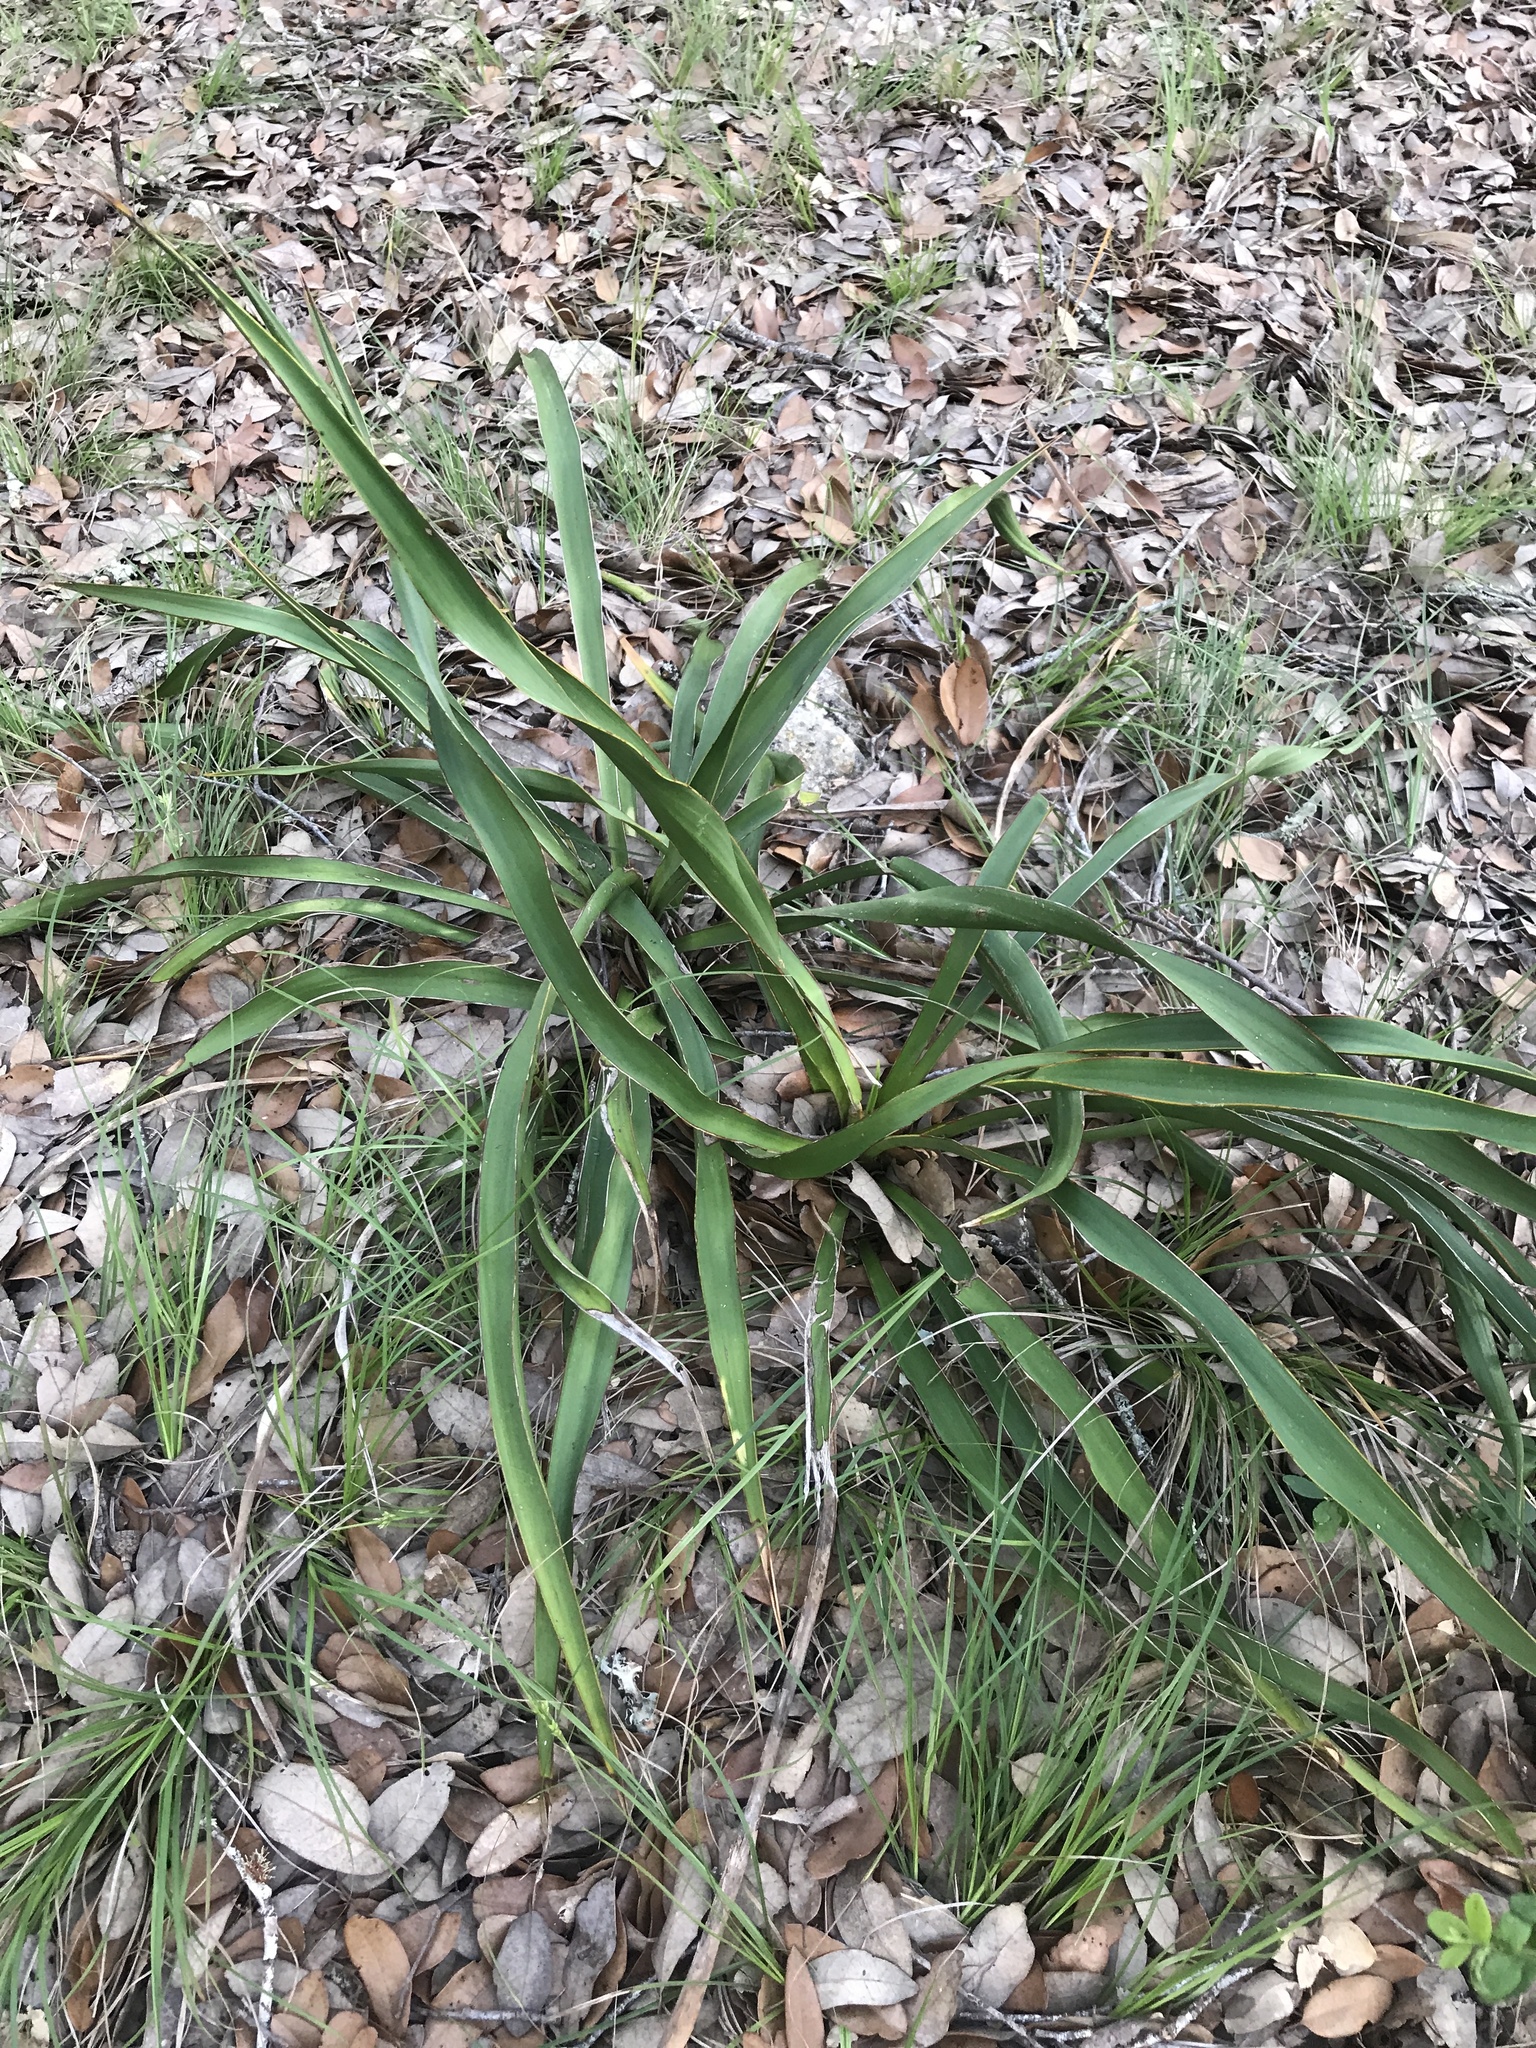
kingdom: Plantae
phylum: Tracheophyta
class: Liliopsida
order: Asparagales
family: Asparagaceae
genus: Yucca
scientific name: Yucca rupicola
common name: Twisted-leaf spanish-dagger
